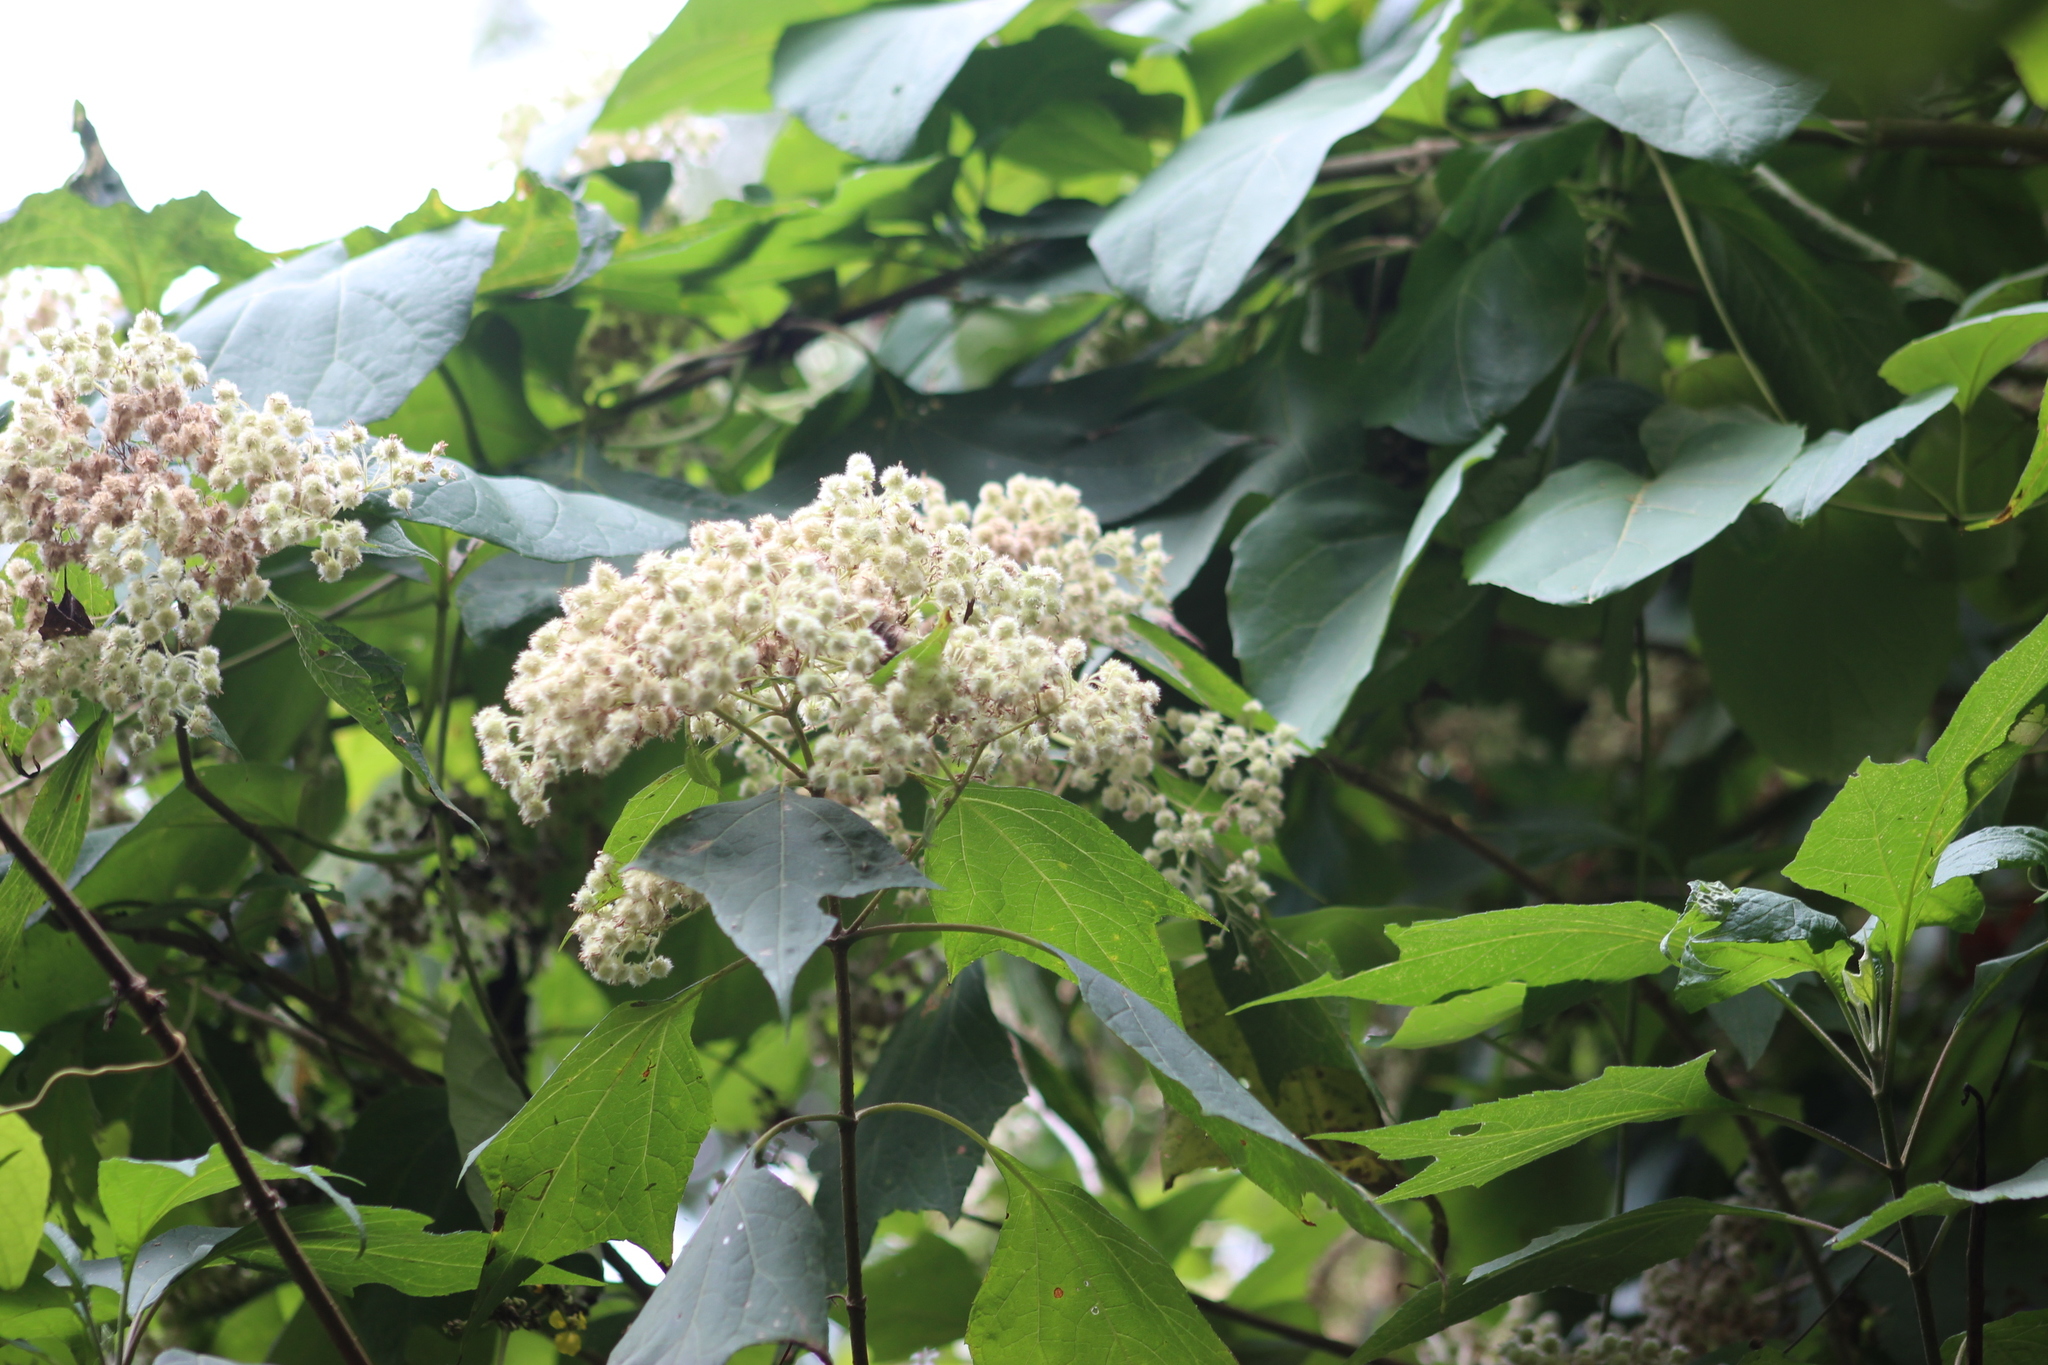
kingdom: Plantae
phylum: Tracheophyta
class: Magnoliopsida
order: Asterales
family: Asteraceae
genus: Montanoa
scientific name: Montanoa tomentosa
